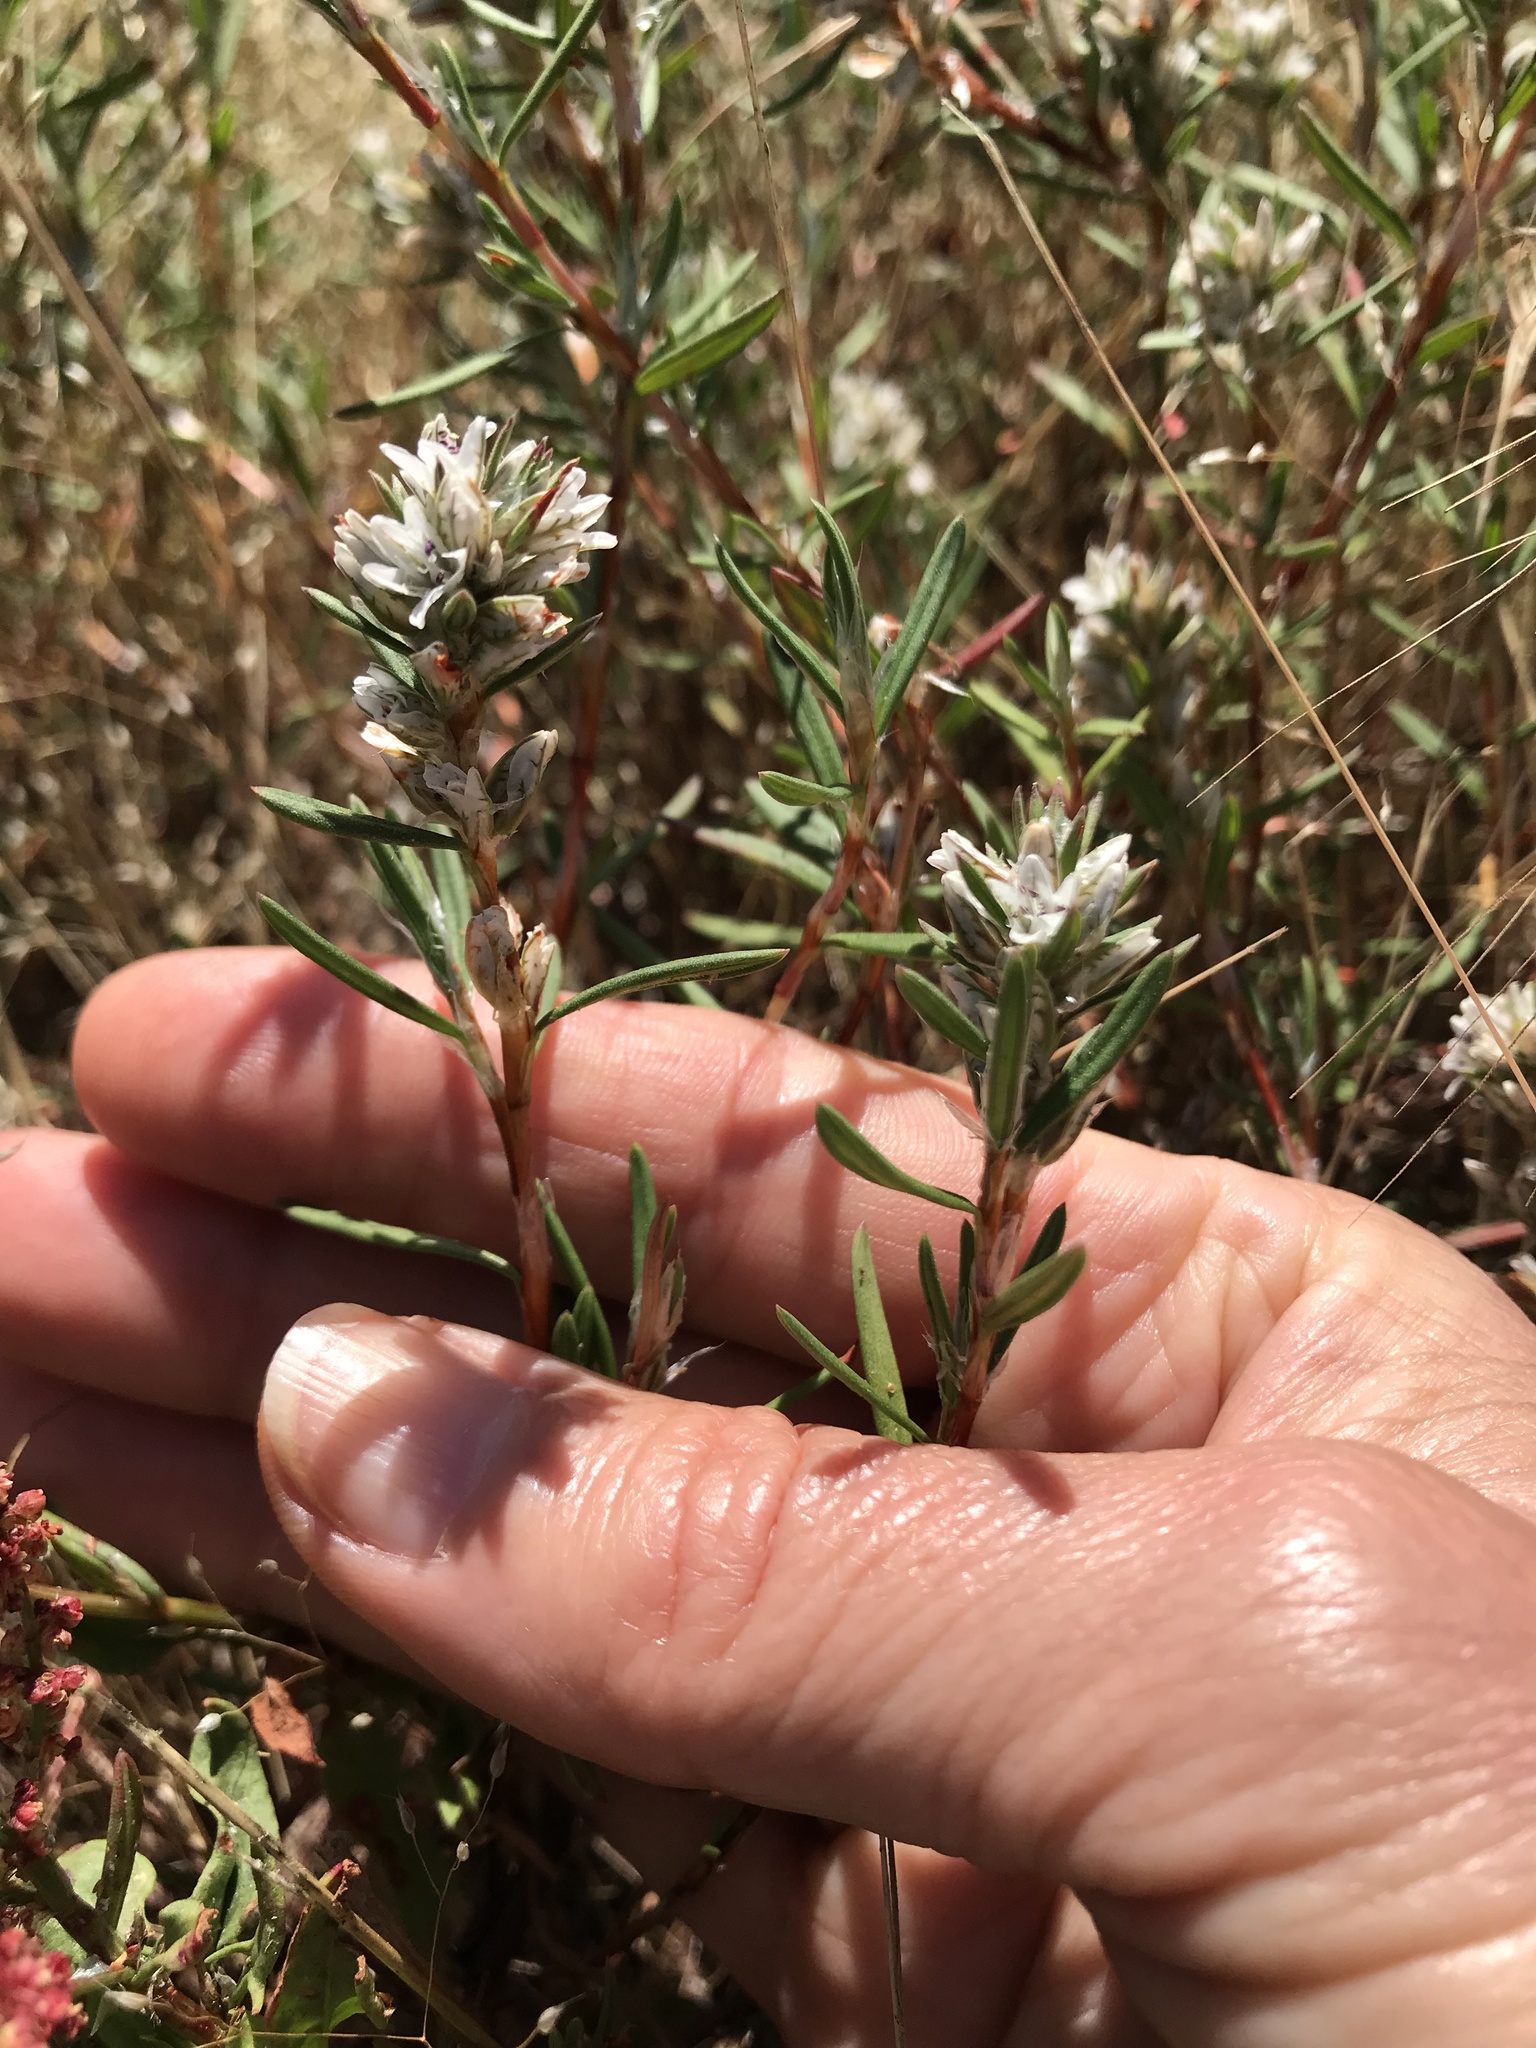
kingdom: Plantae
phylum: Tracheophyta
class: Magnoliopsida
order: Caryophyllales
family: Polygonaceae
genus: Polygonum
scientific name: Polygonum paronychia
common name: Dune knotweed
